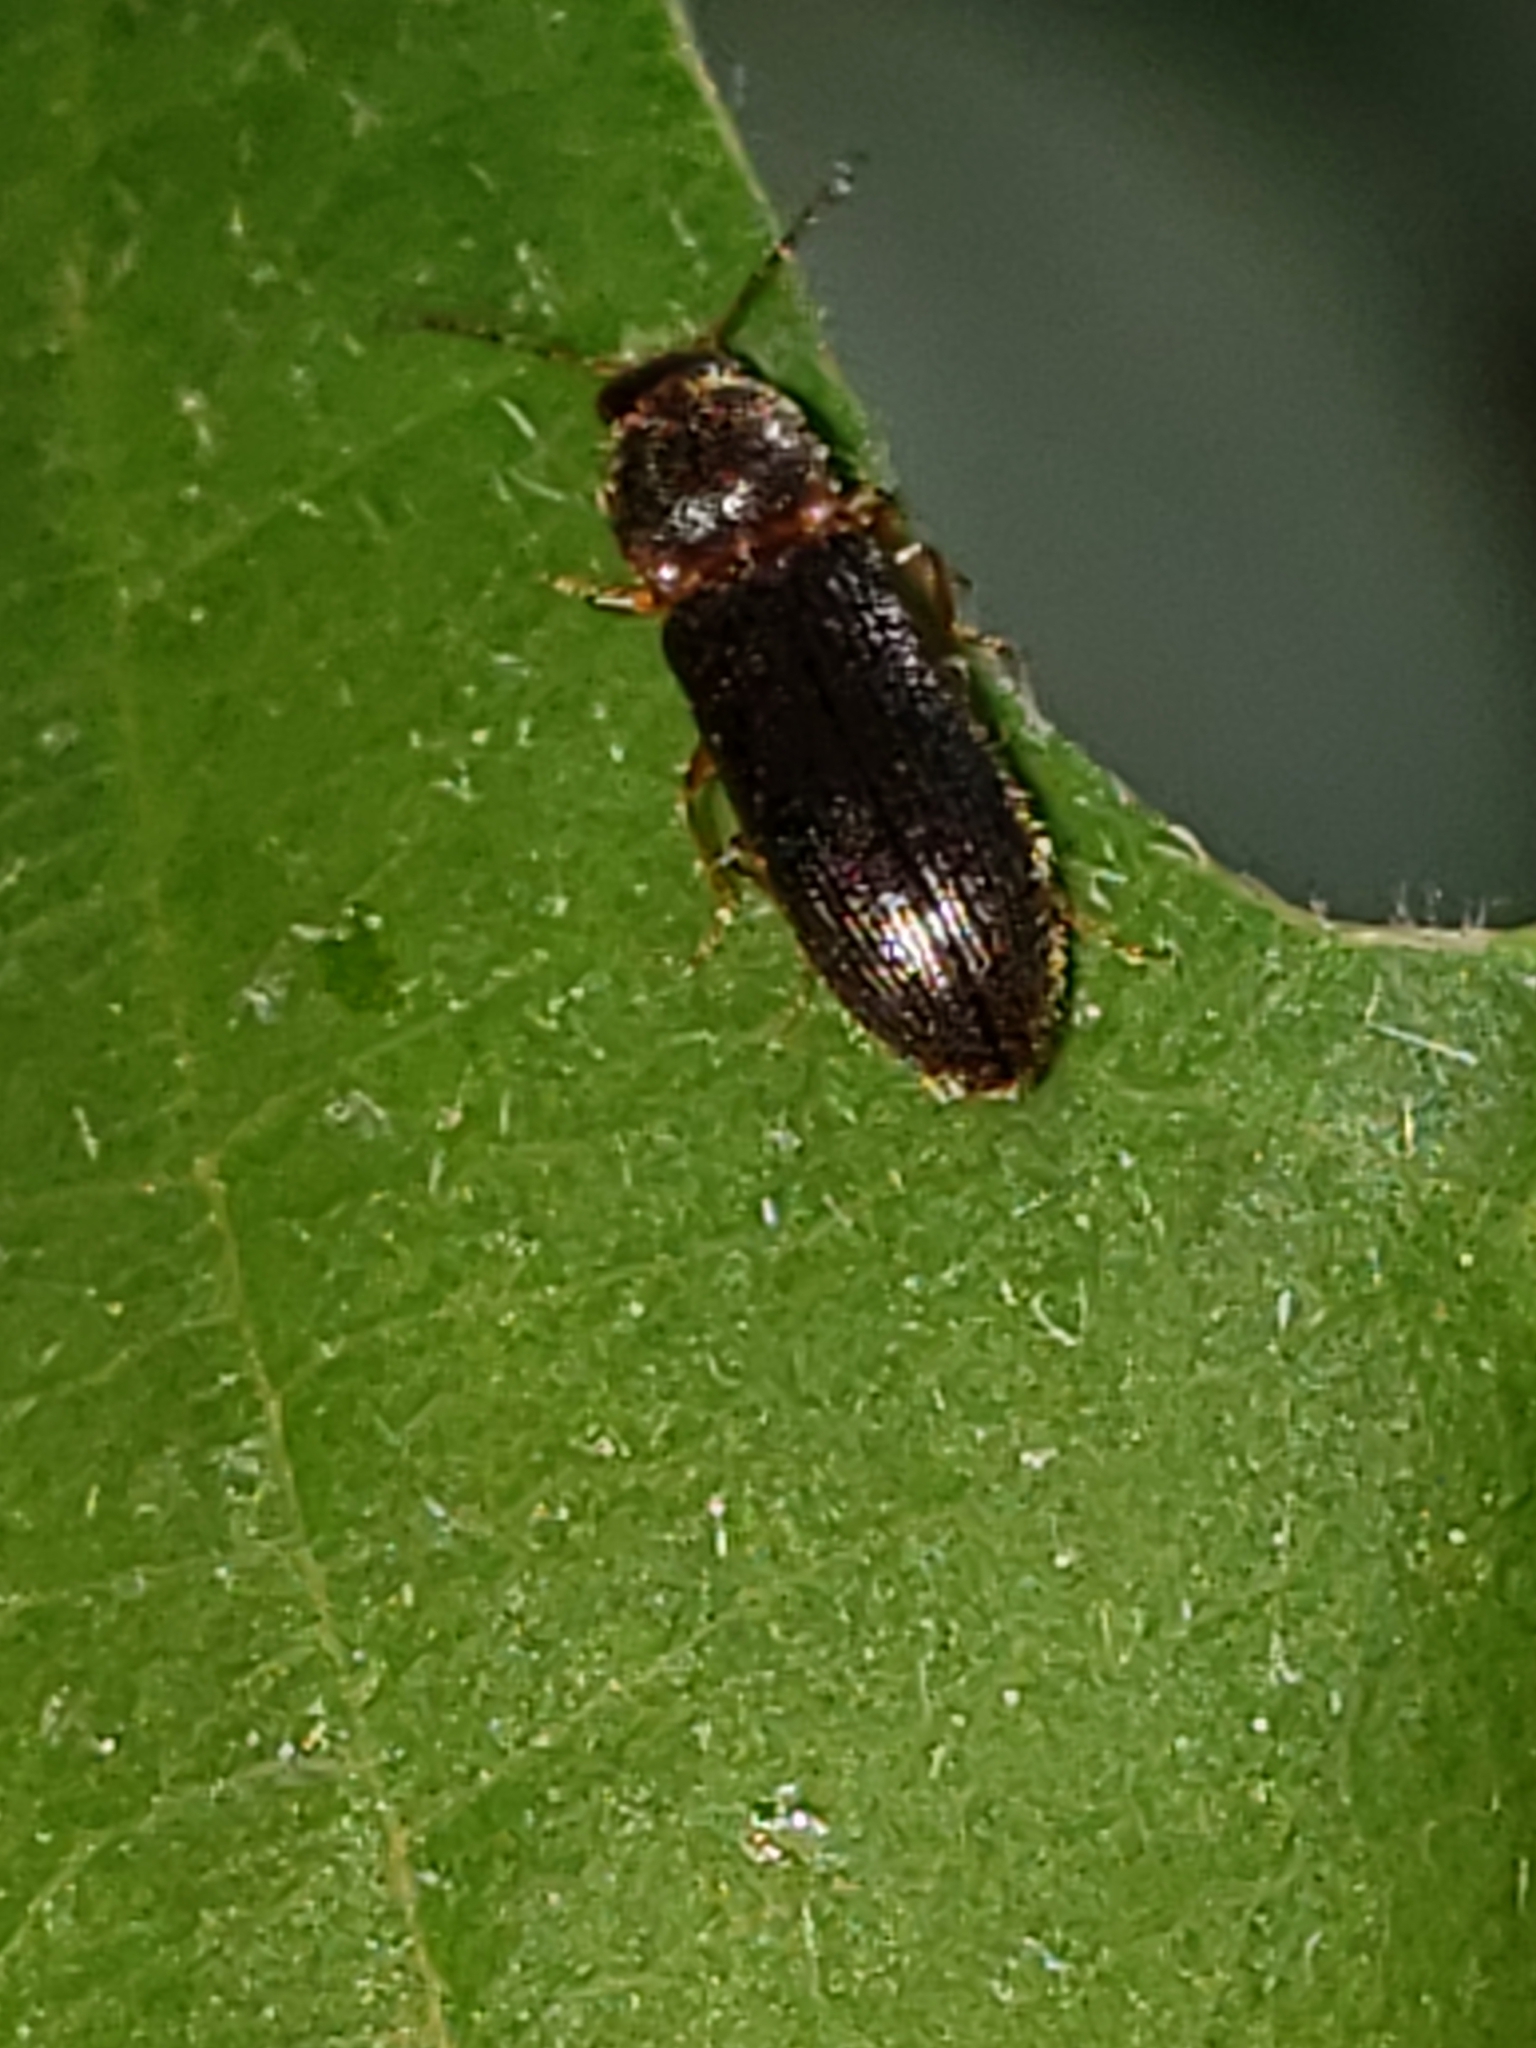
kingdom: Animalia
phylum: Arthropoda
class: Insecta
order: Coleoptera
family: Elateridae
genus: Tetralimonius
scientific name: Tetralimonius
